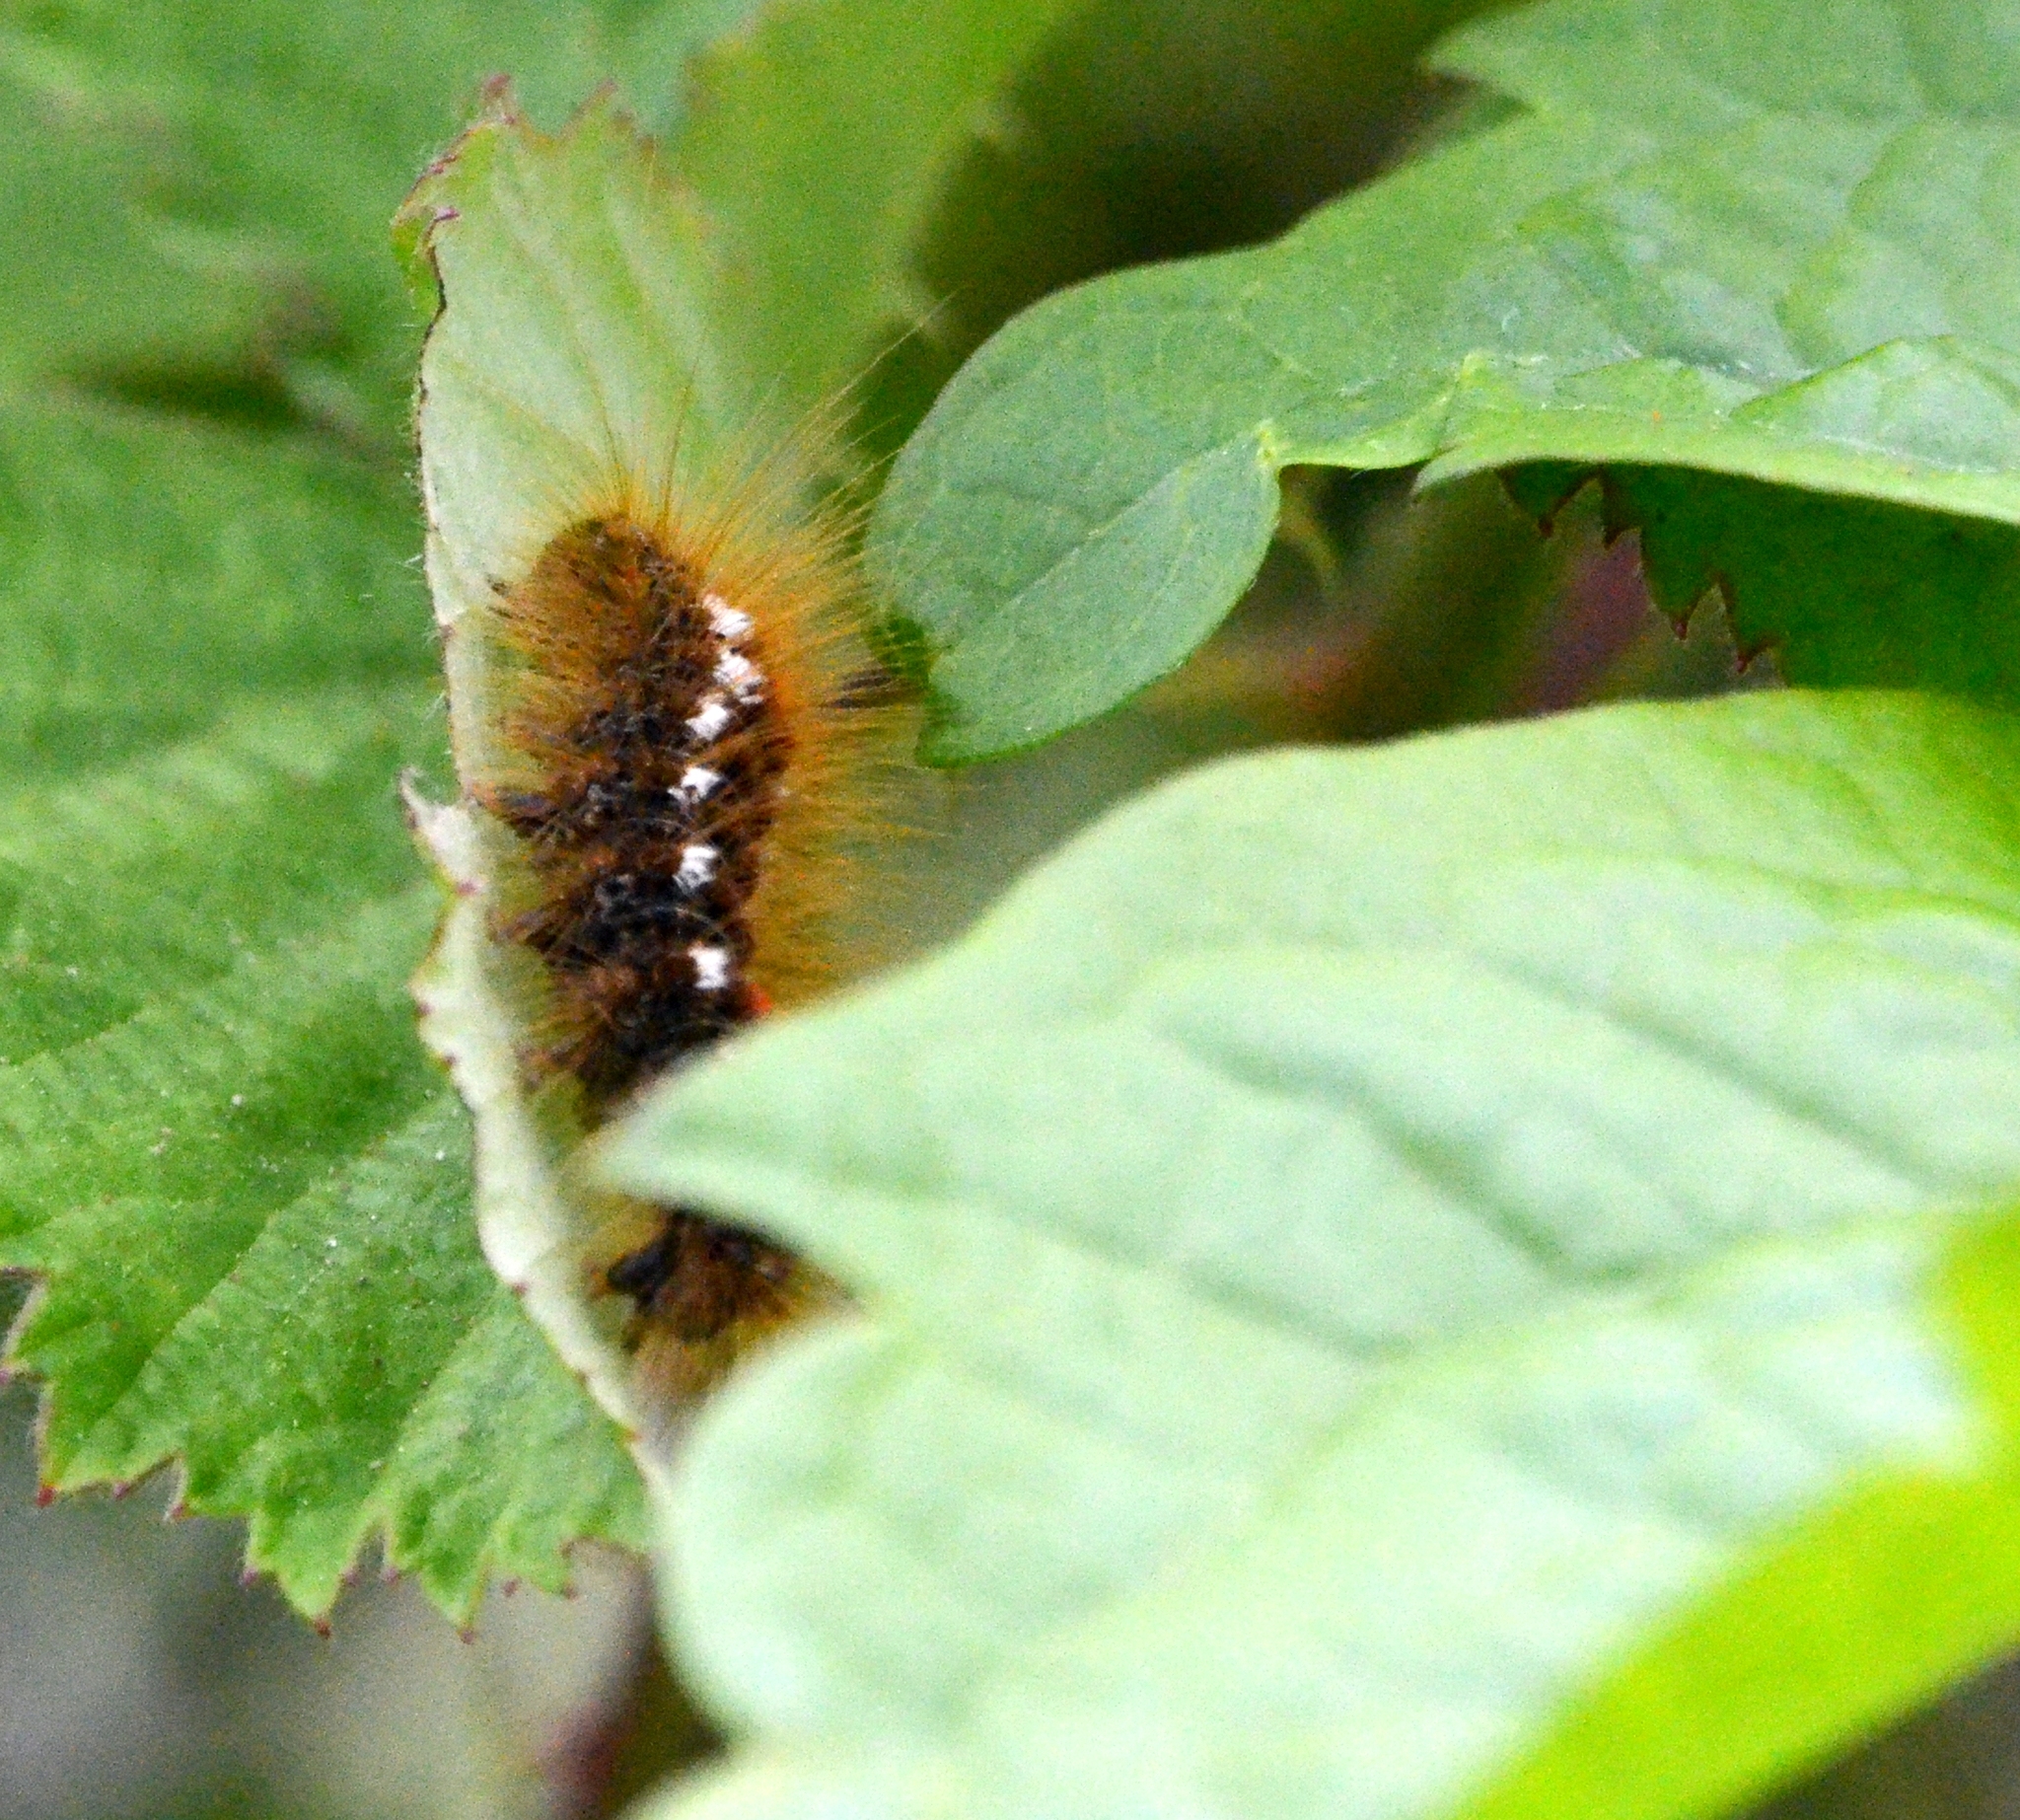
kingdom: Animalia
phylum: Arthropoda
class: Insecta
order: Lepidoptera
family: Erebidae
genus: Euproctis
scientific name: Euproctis chrysorrhoea
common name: Brown-tail
